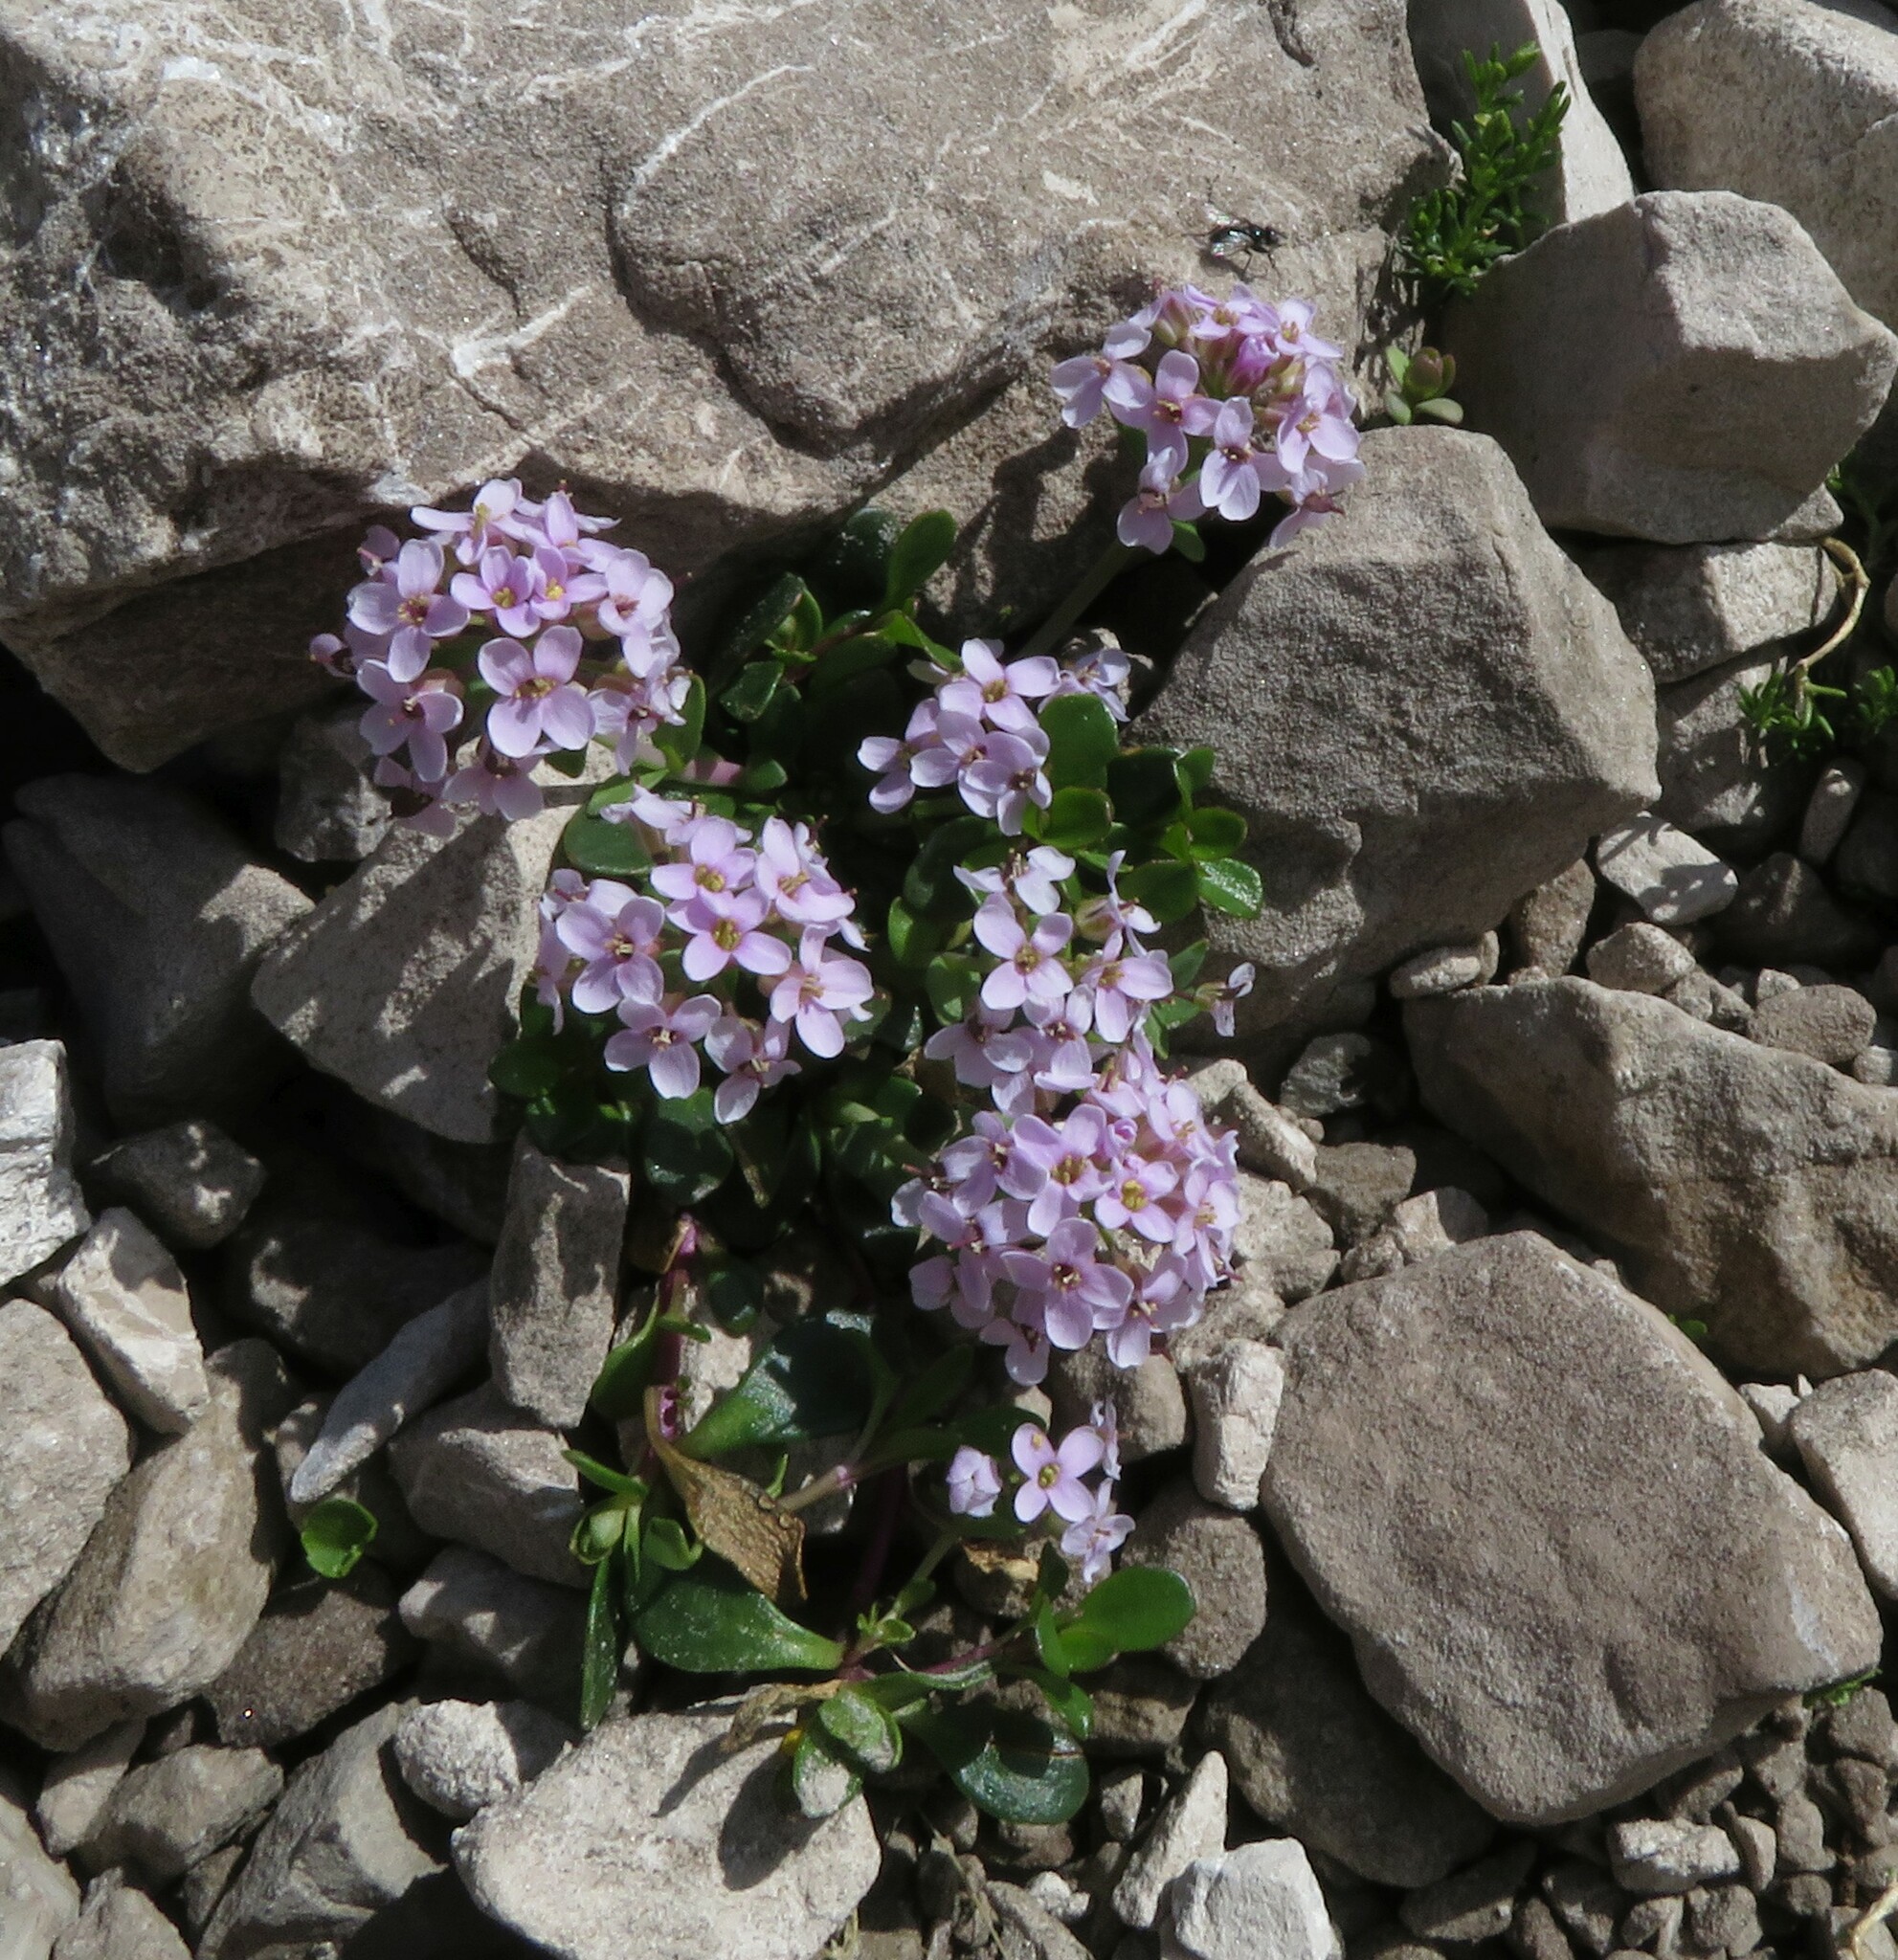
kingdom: Plantae
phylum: Tracheophyta
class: Magnoliopsida
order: Brassicales
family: Brassicaceae
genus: Noccaea
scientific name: Noccaea rotundifolia
